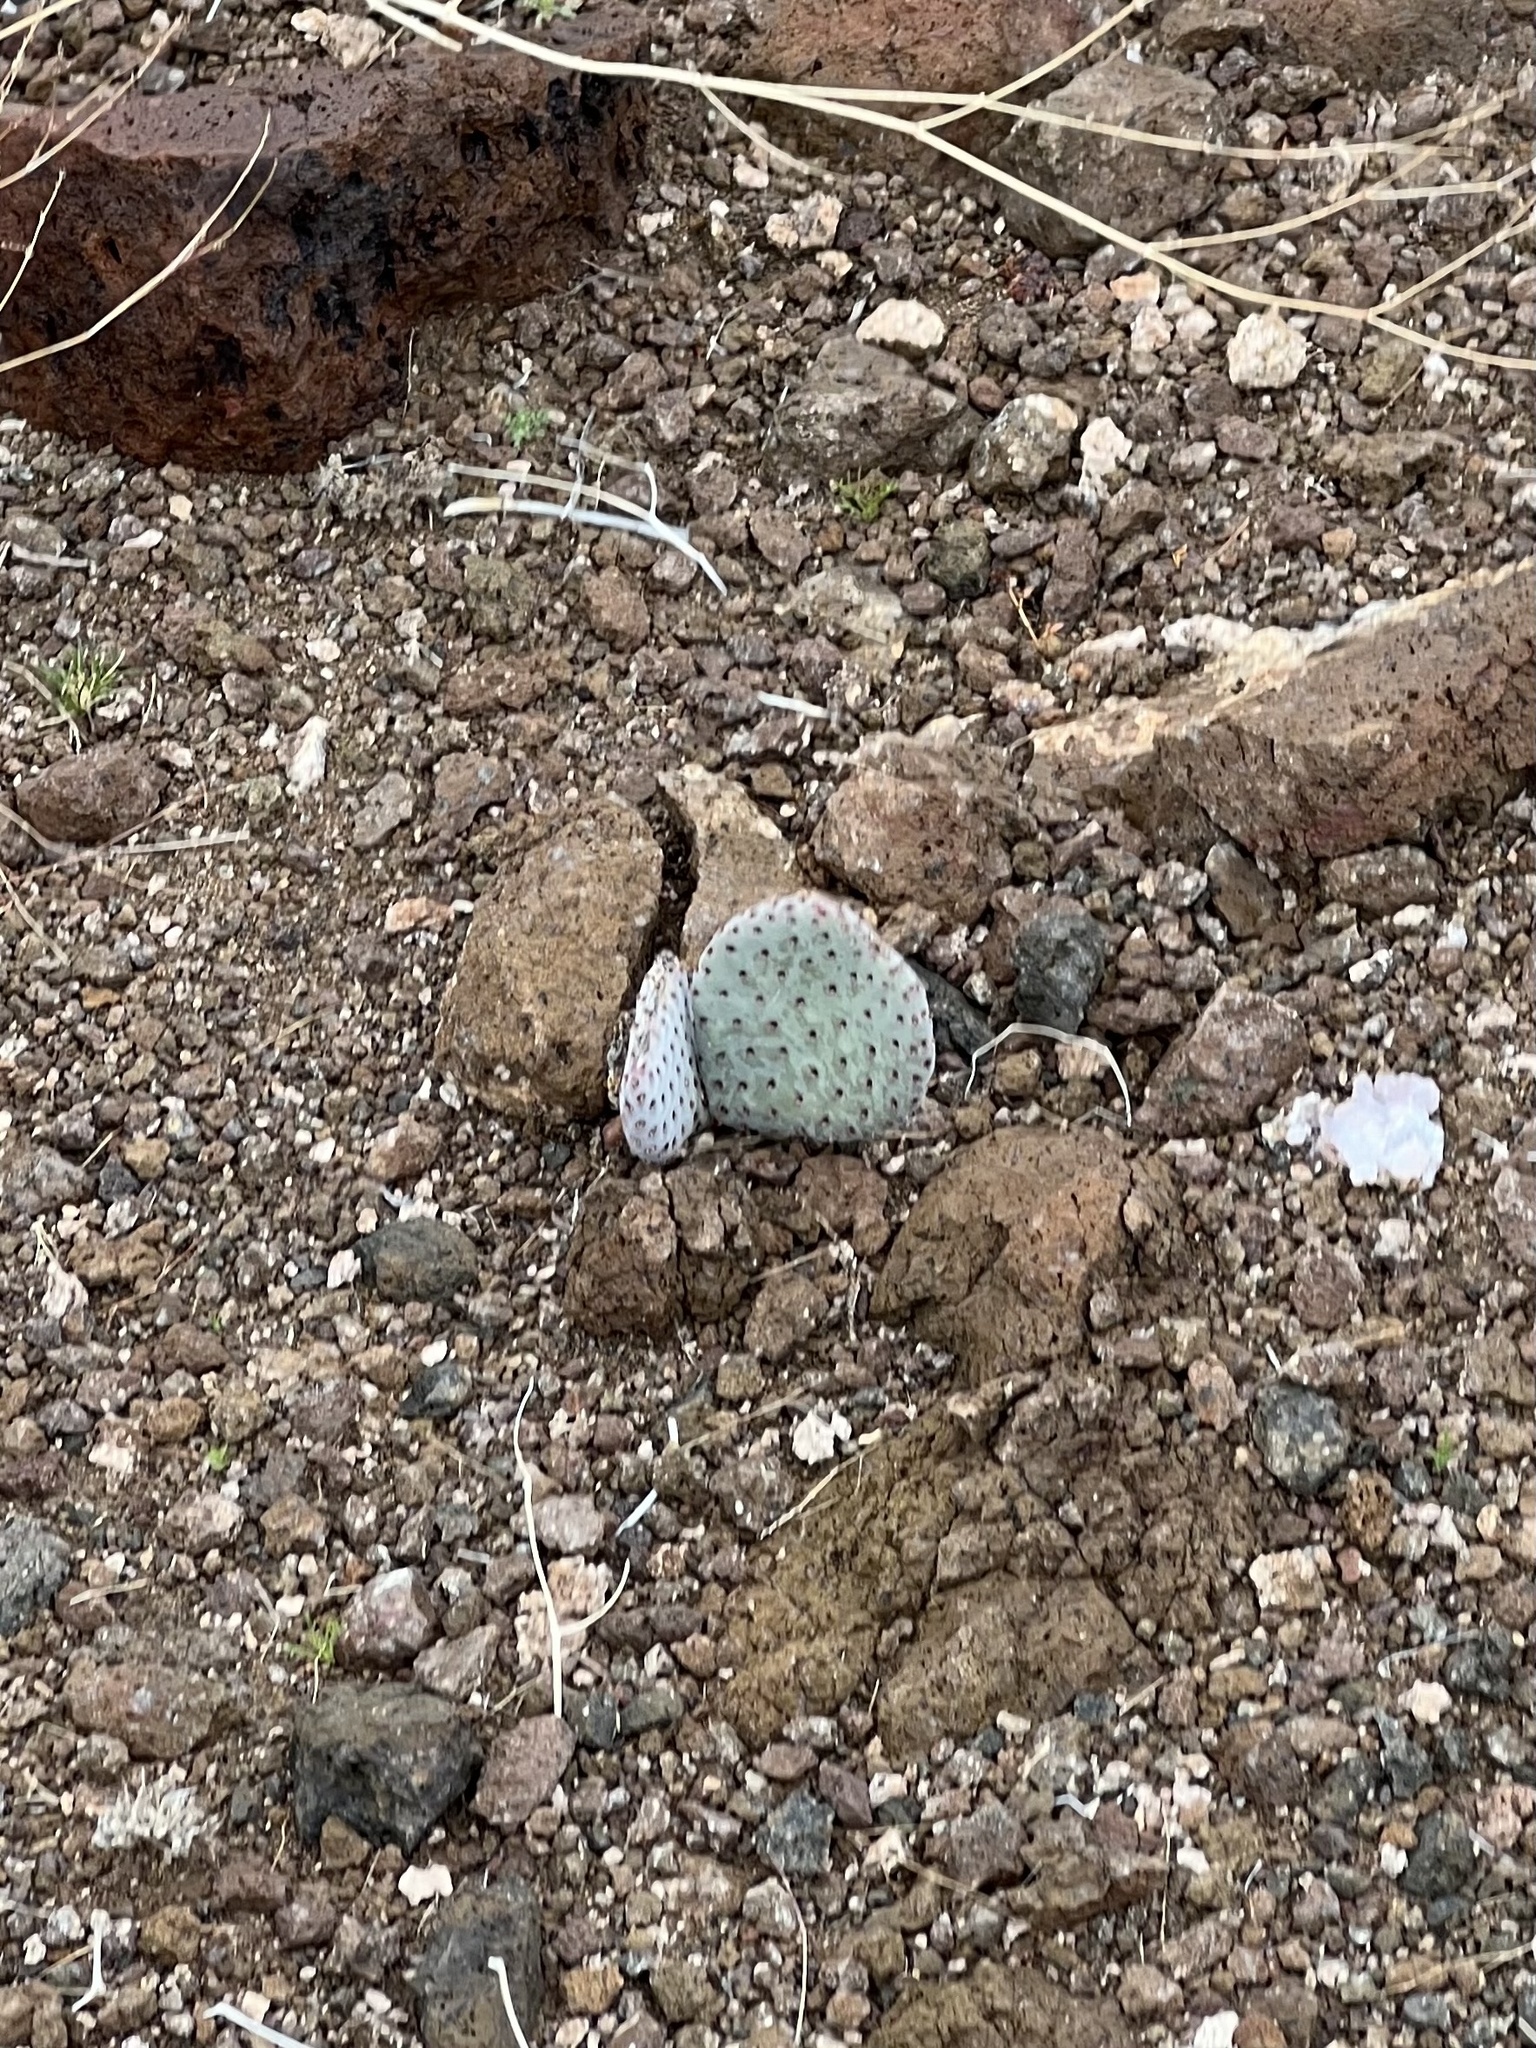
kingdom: Plantae
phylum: Tracheophyta
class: Magnoliopsida
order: Caryophyllales
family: Cactaceae
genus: Opuntia
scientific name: Opuntia basilaris
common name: Beavertail prickly-pear
